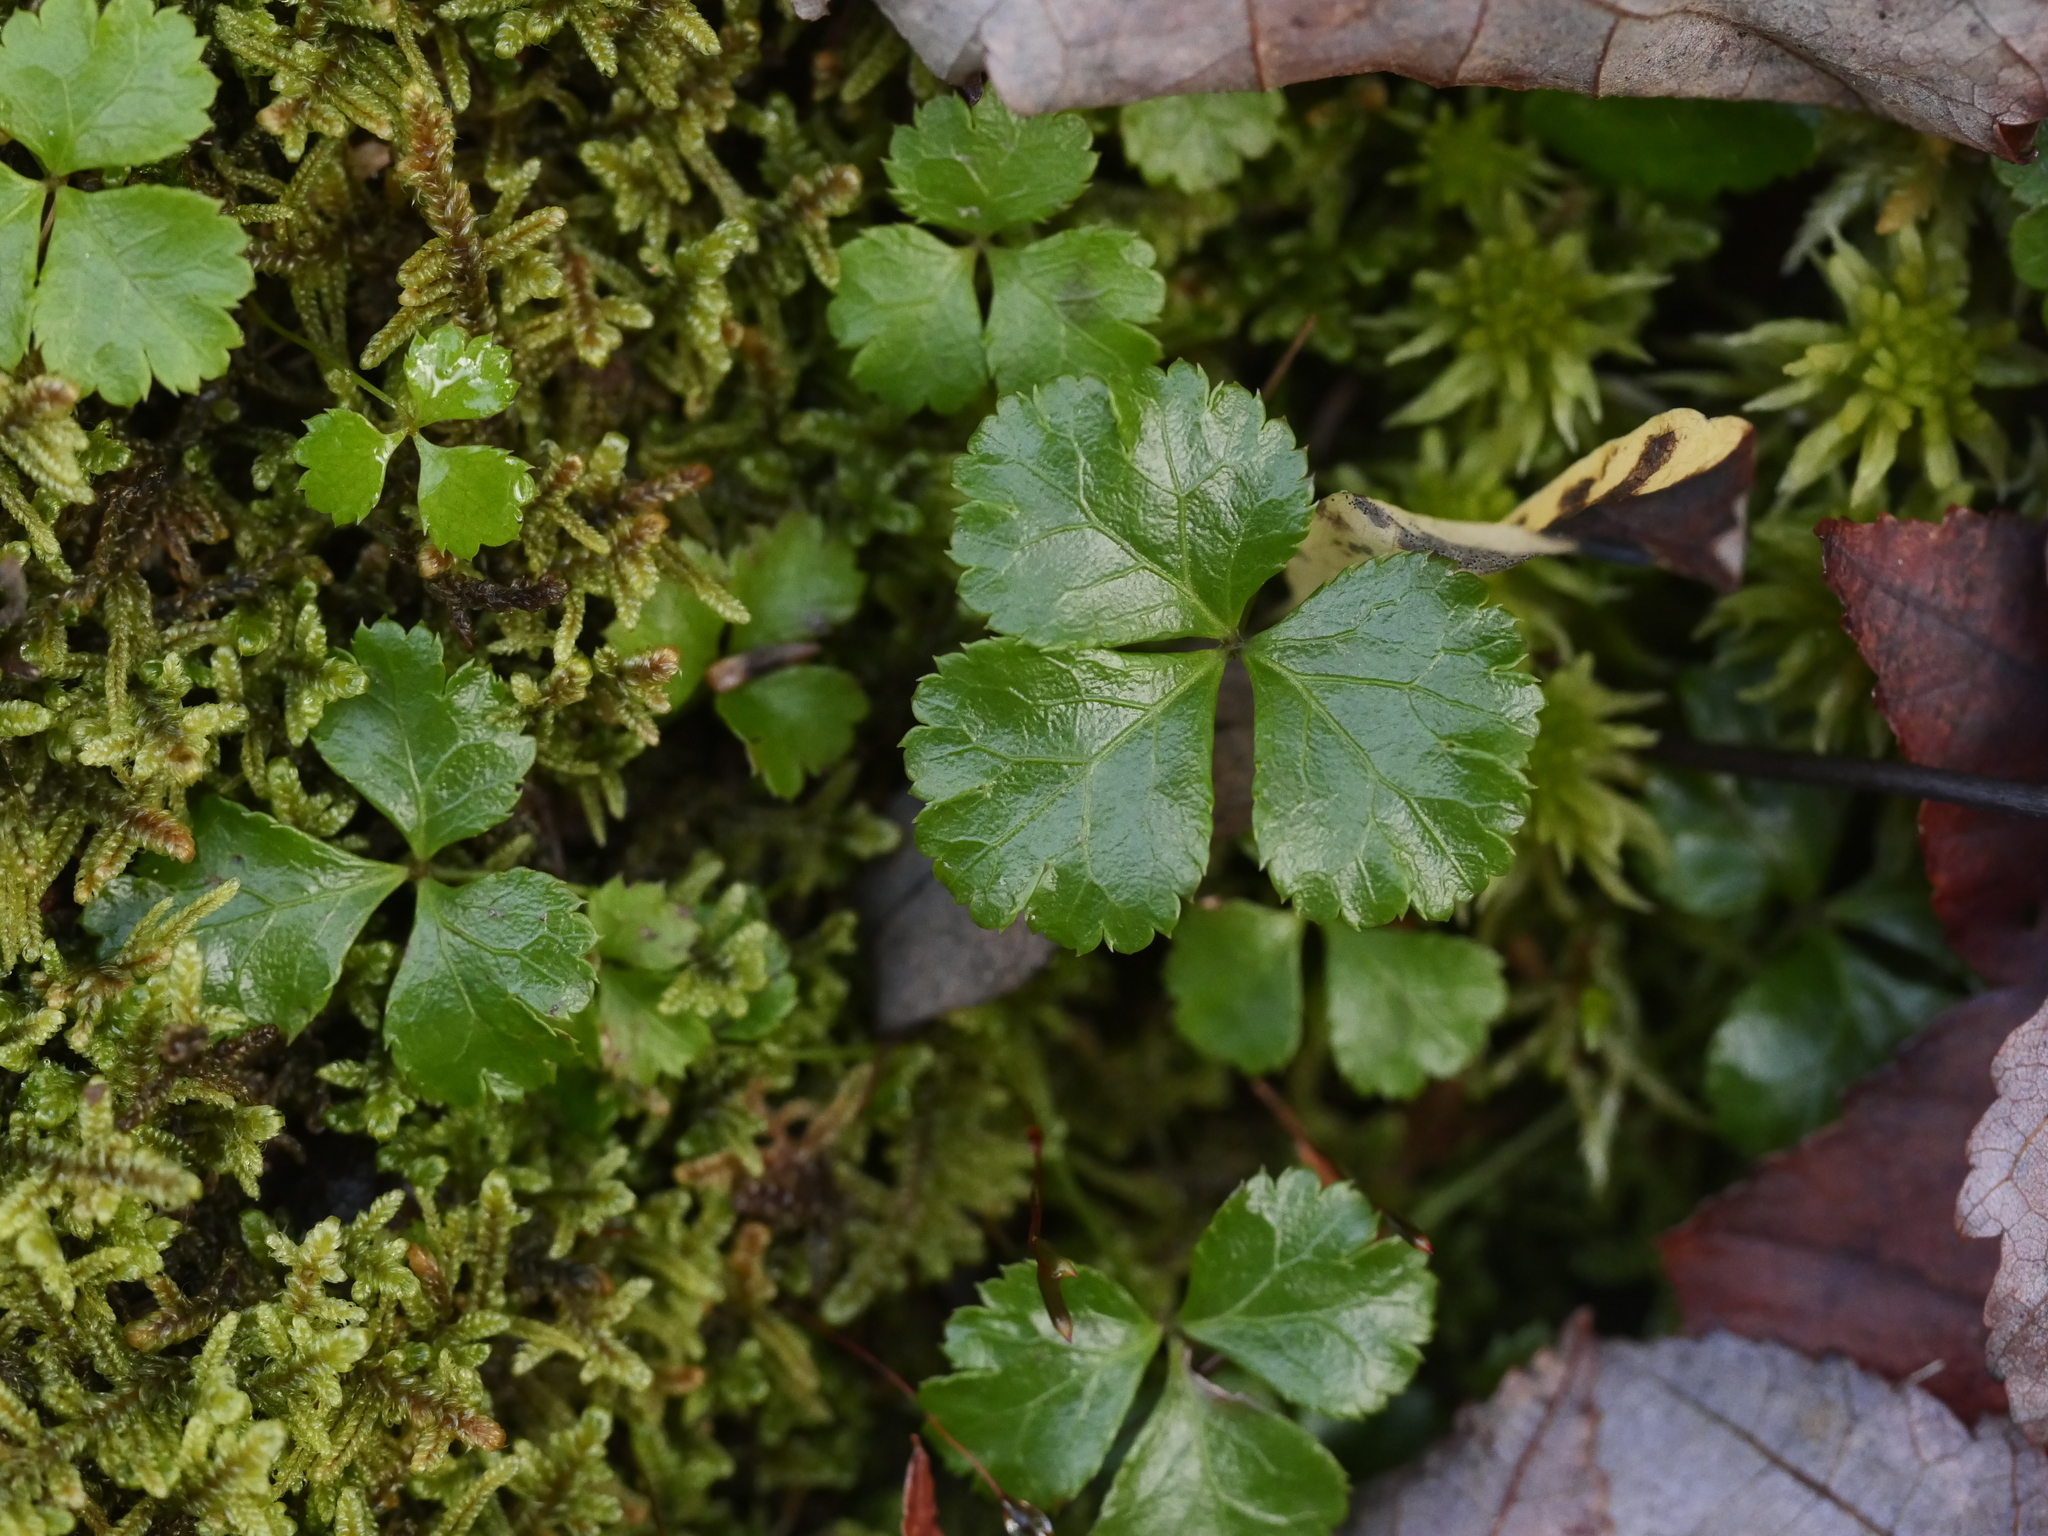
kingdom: Plantae
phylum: Tracheophyta
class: Magnoliopsida
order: Ranunculales
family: Ranunculaceae
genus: Coptis
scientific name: Coptis trifolia
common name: Canker-root
